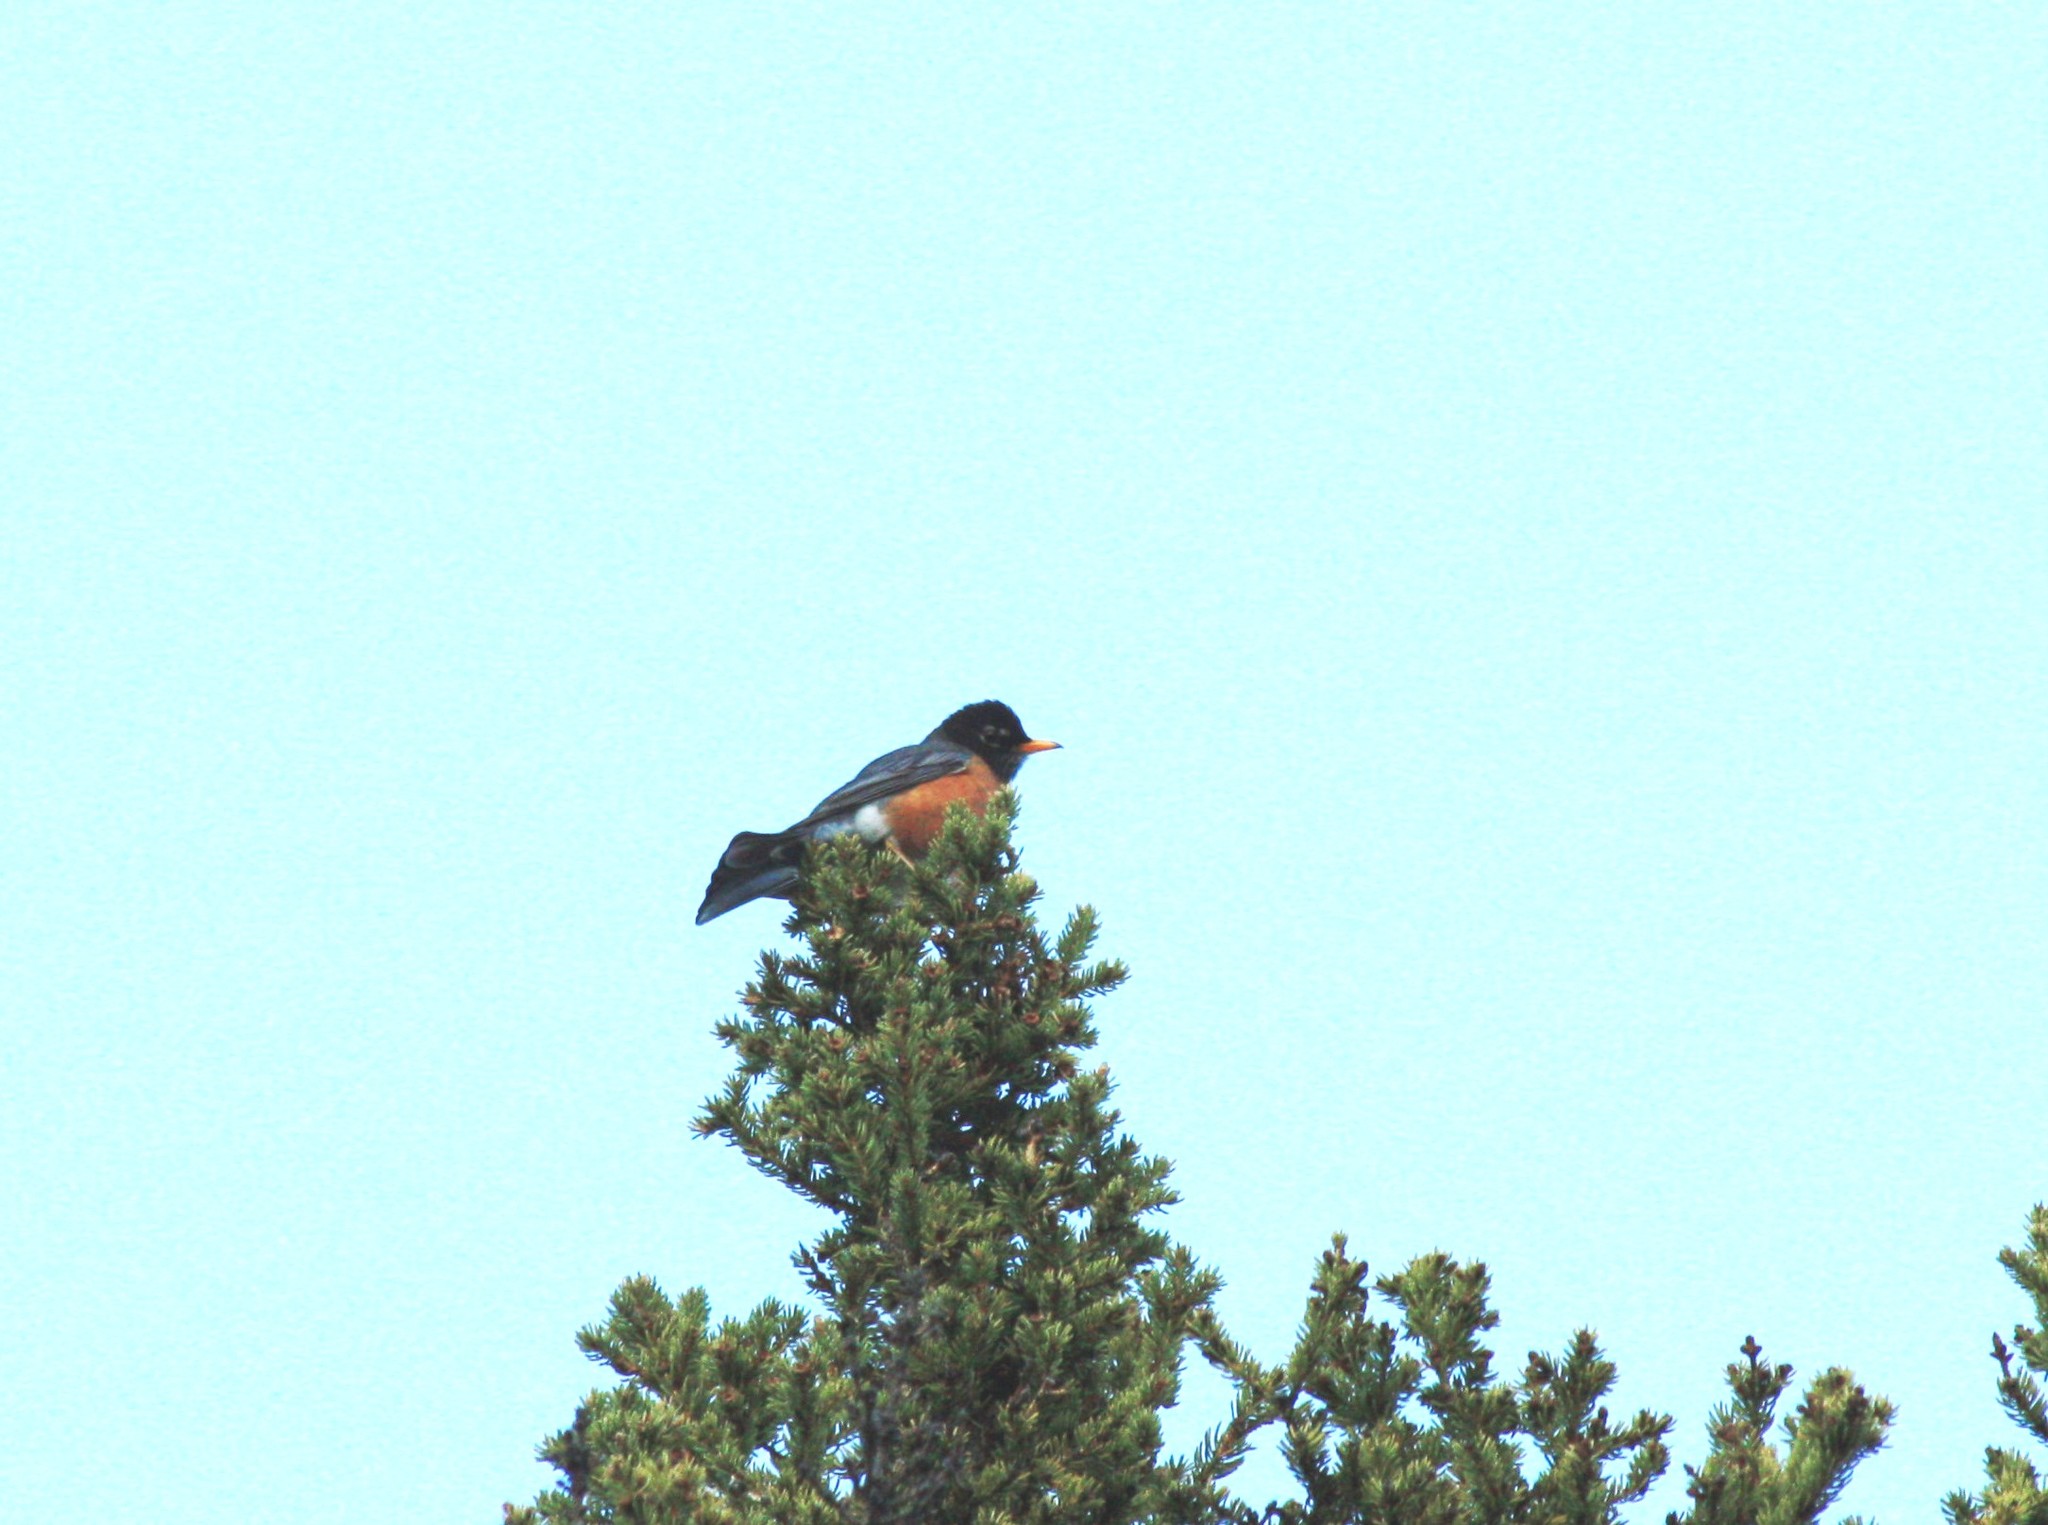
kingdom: Animalia
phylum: Chordata
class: Aves
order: Passeriformes
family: Turdidae
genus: Turdus
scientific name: Turdus migratorius
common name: American robin
